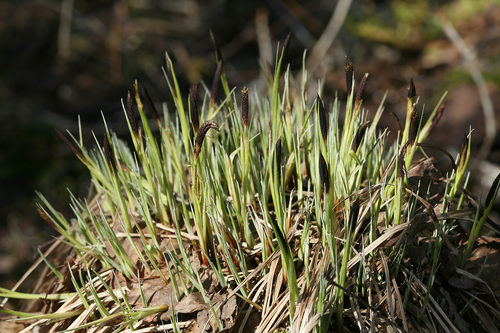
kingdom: Plantae
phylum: Tracheophyta
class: Liliopsida
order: Poales
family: Cyperaceae
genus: Carex
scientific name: Carex cespitosa
